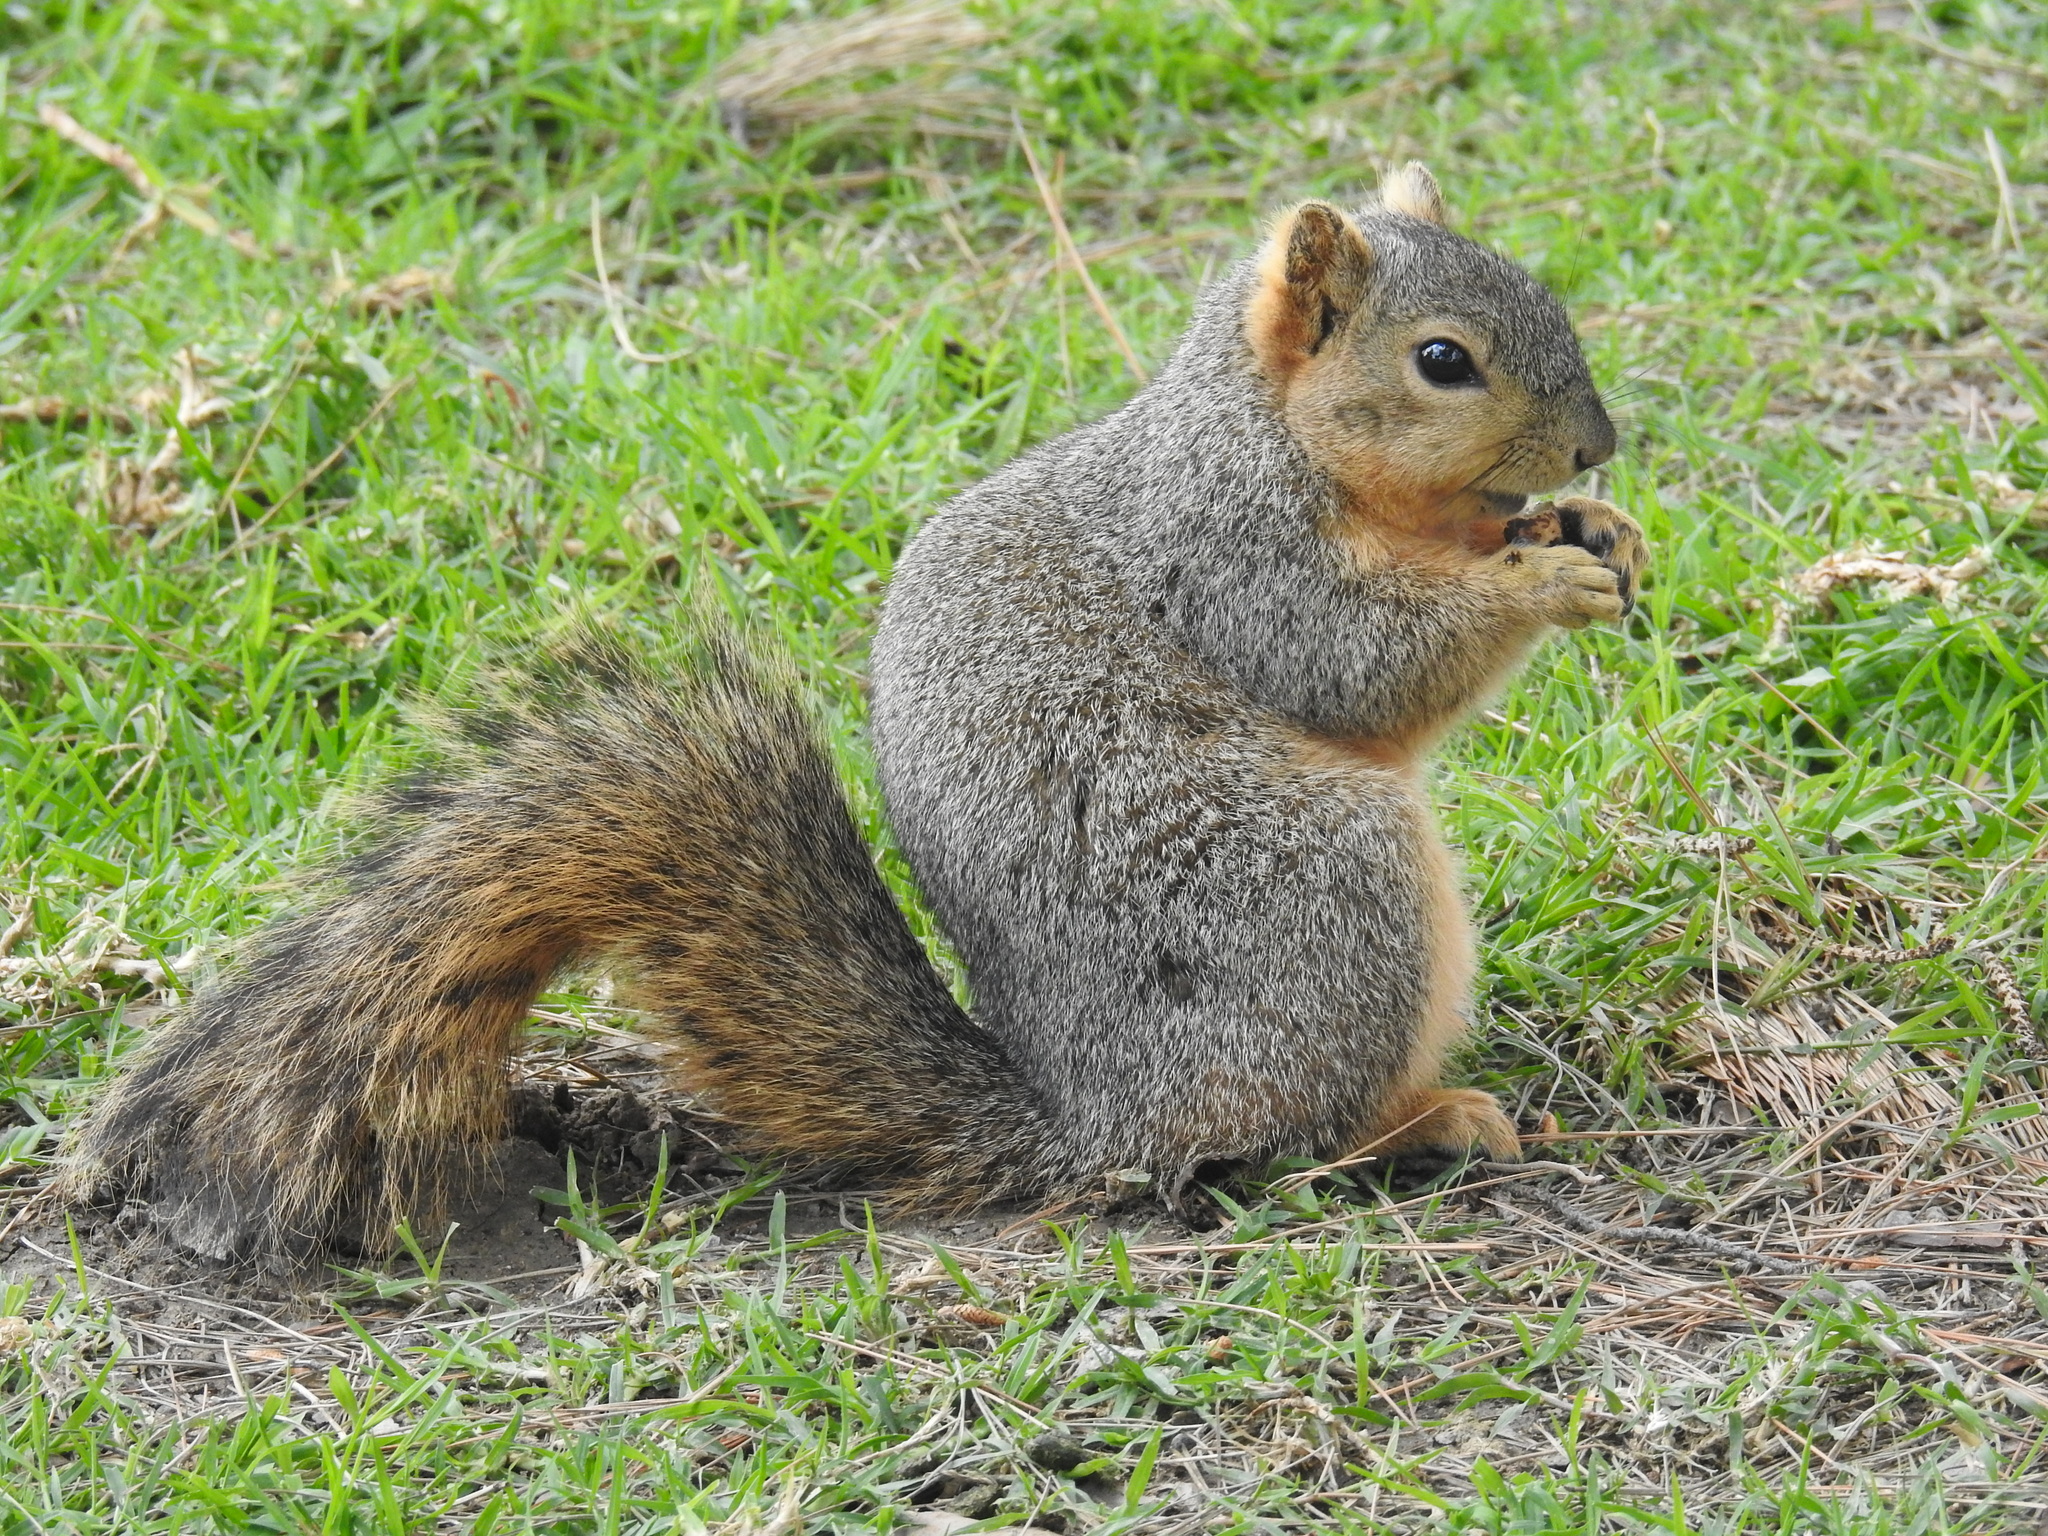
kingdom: Animalia
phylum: Chordata
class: Mammalia
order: Rodentia
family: Sciuridae
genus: Sciurus
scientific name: Sciurus niger
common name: Fox squirrel
